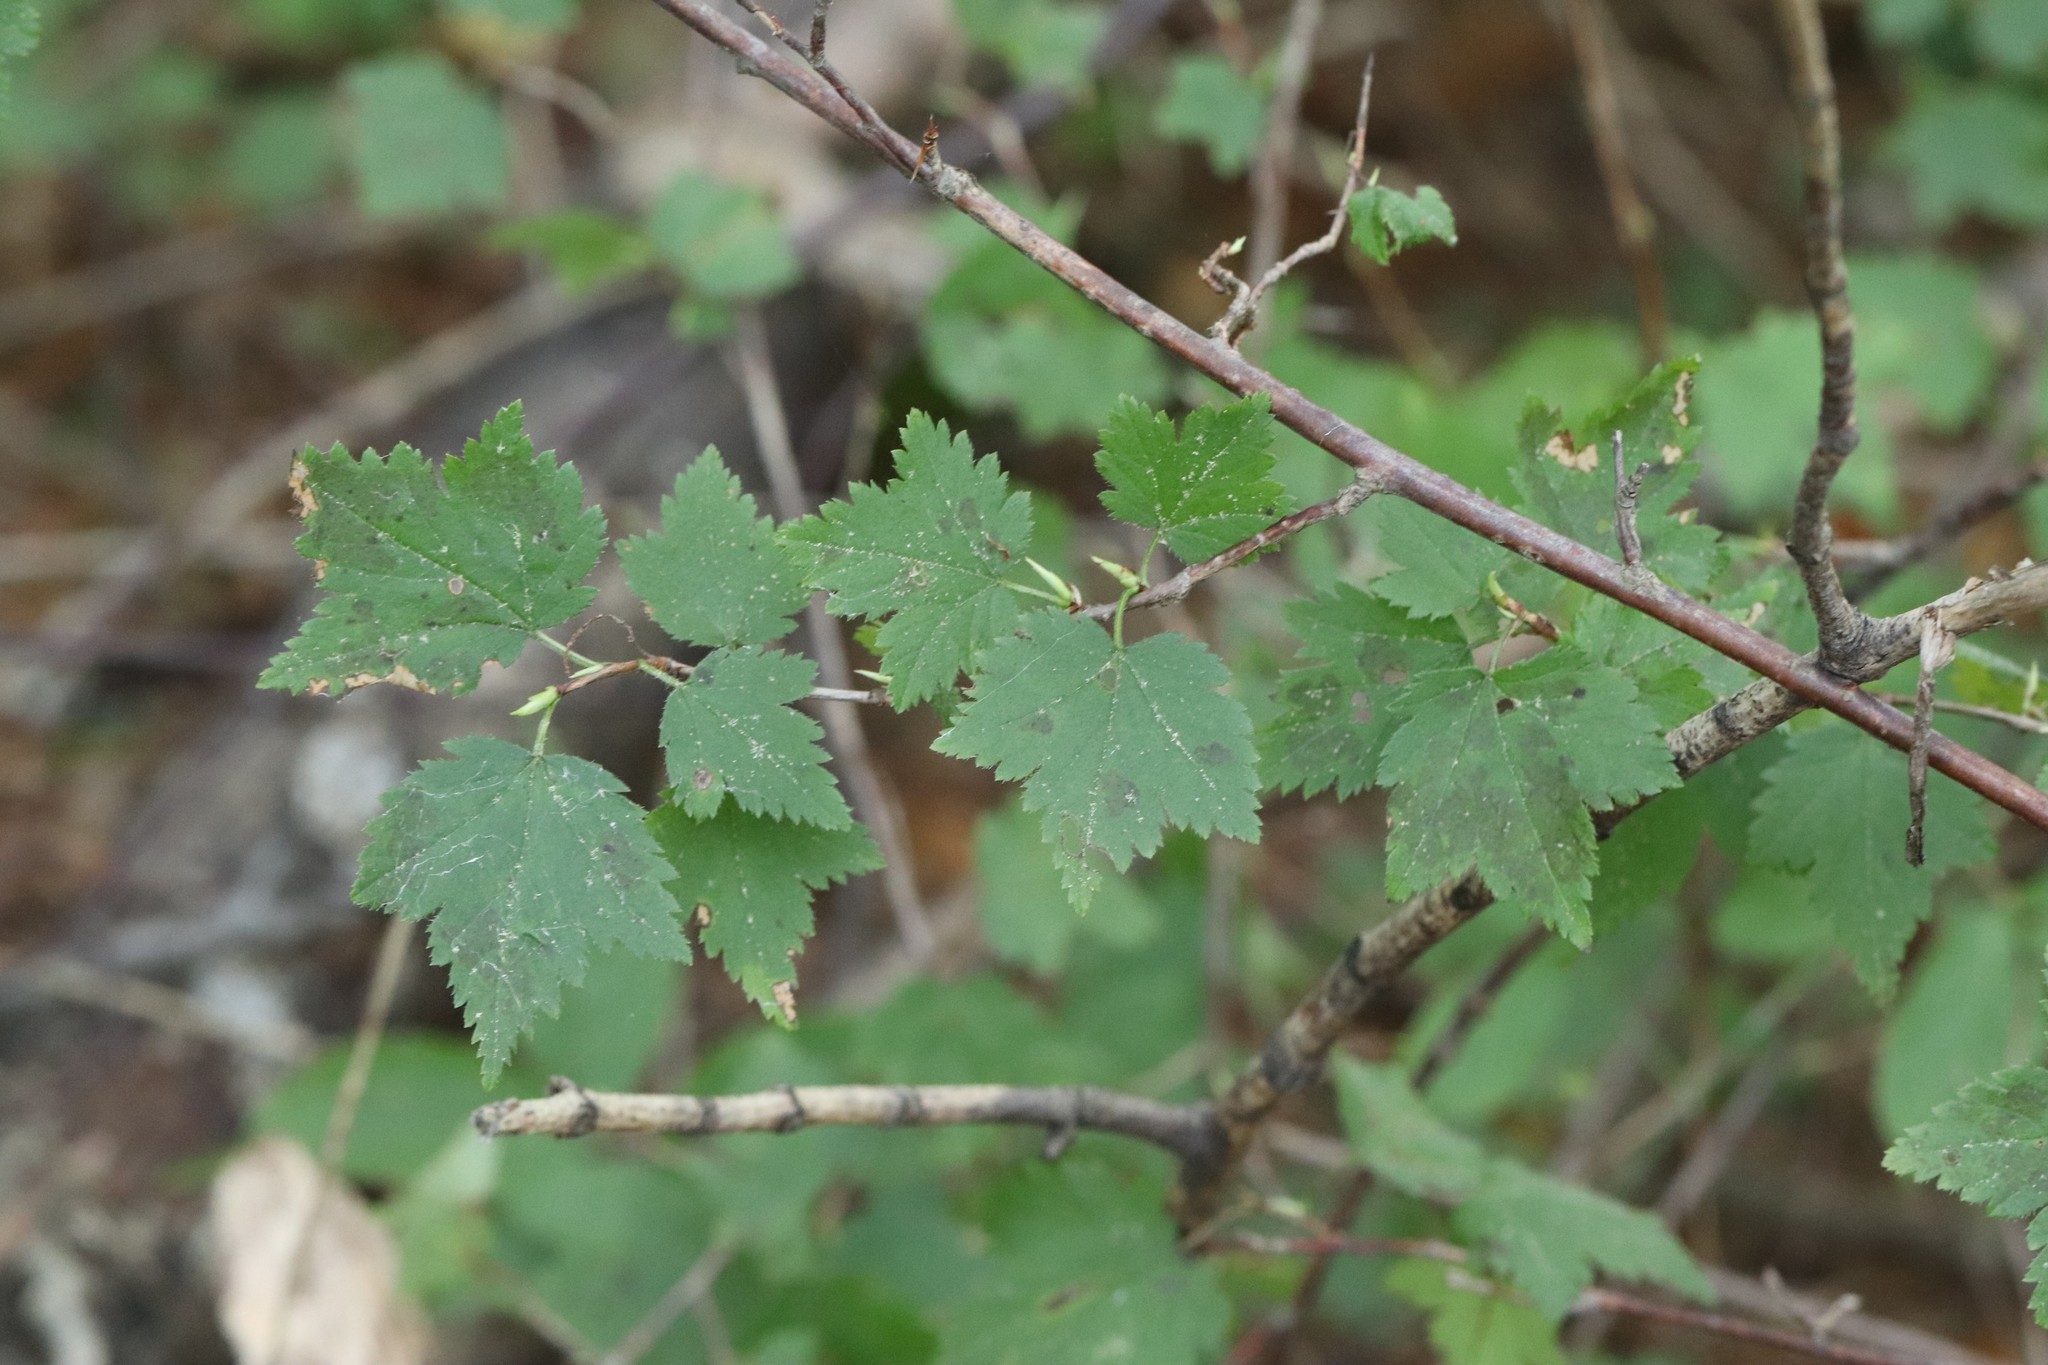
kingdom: Plantae
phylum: Tracheophyta
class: Magnoliopsida
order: Saxifragales
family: Grossulariaceae
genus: Ribes
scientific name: Ribes maximoviczianum
